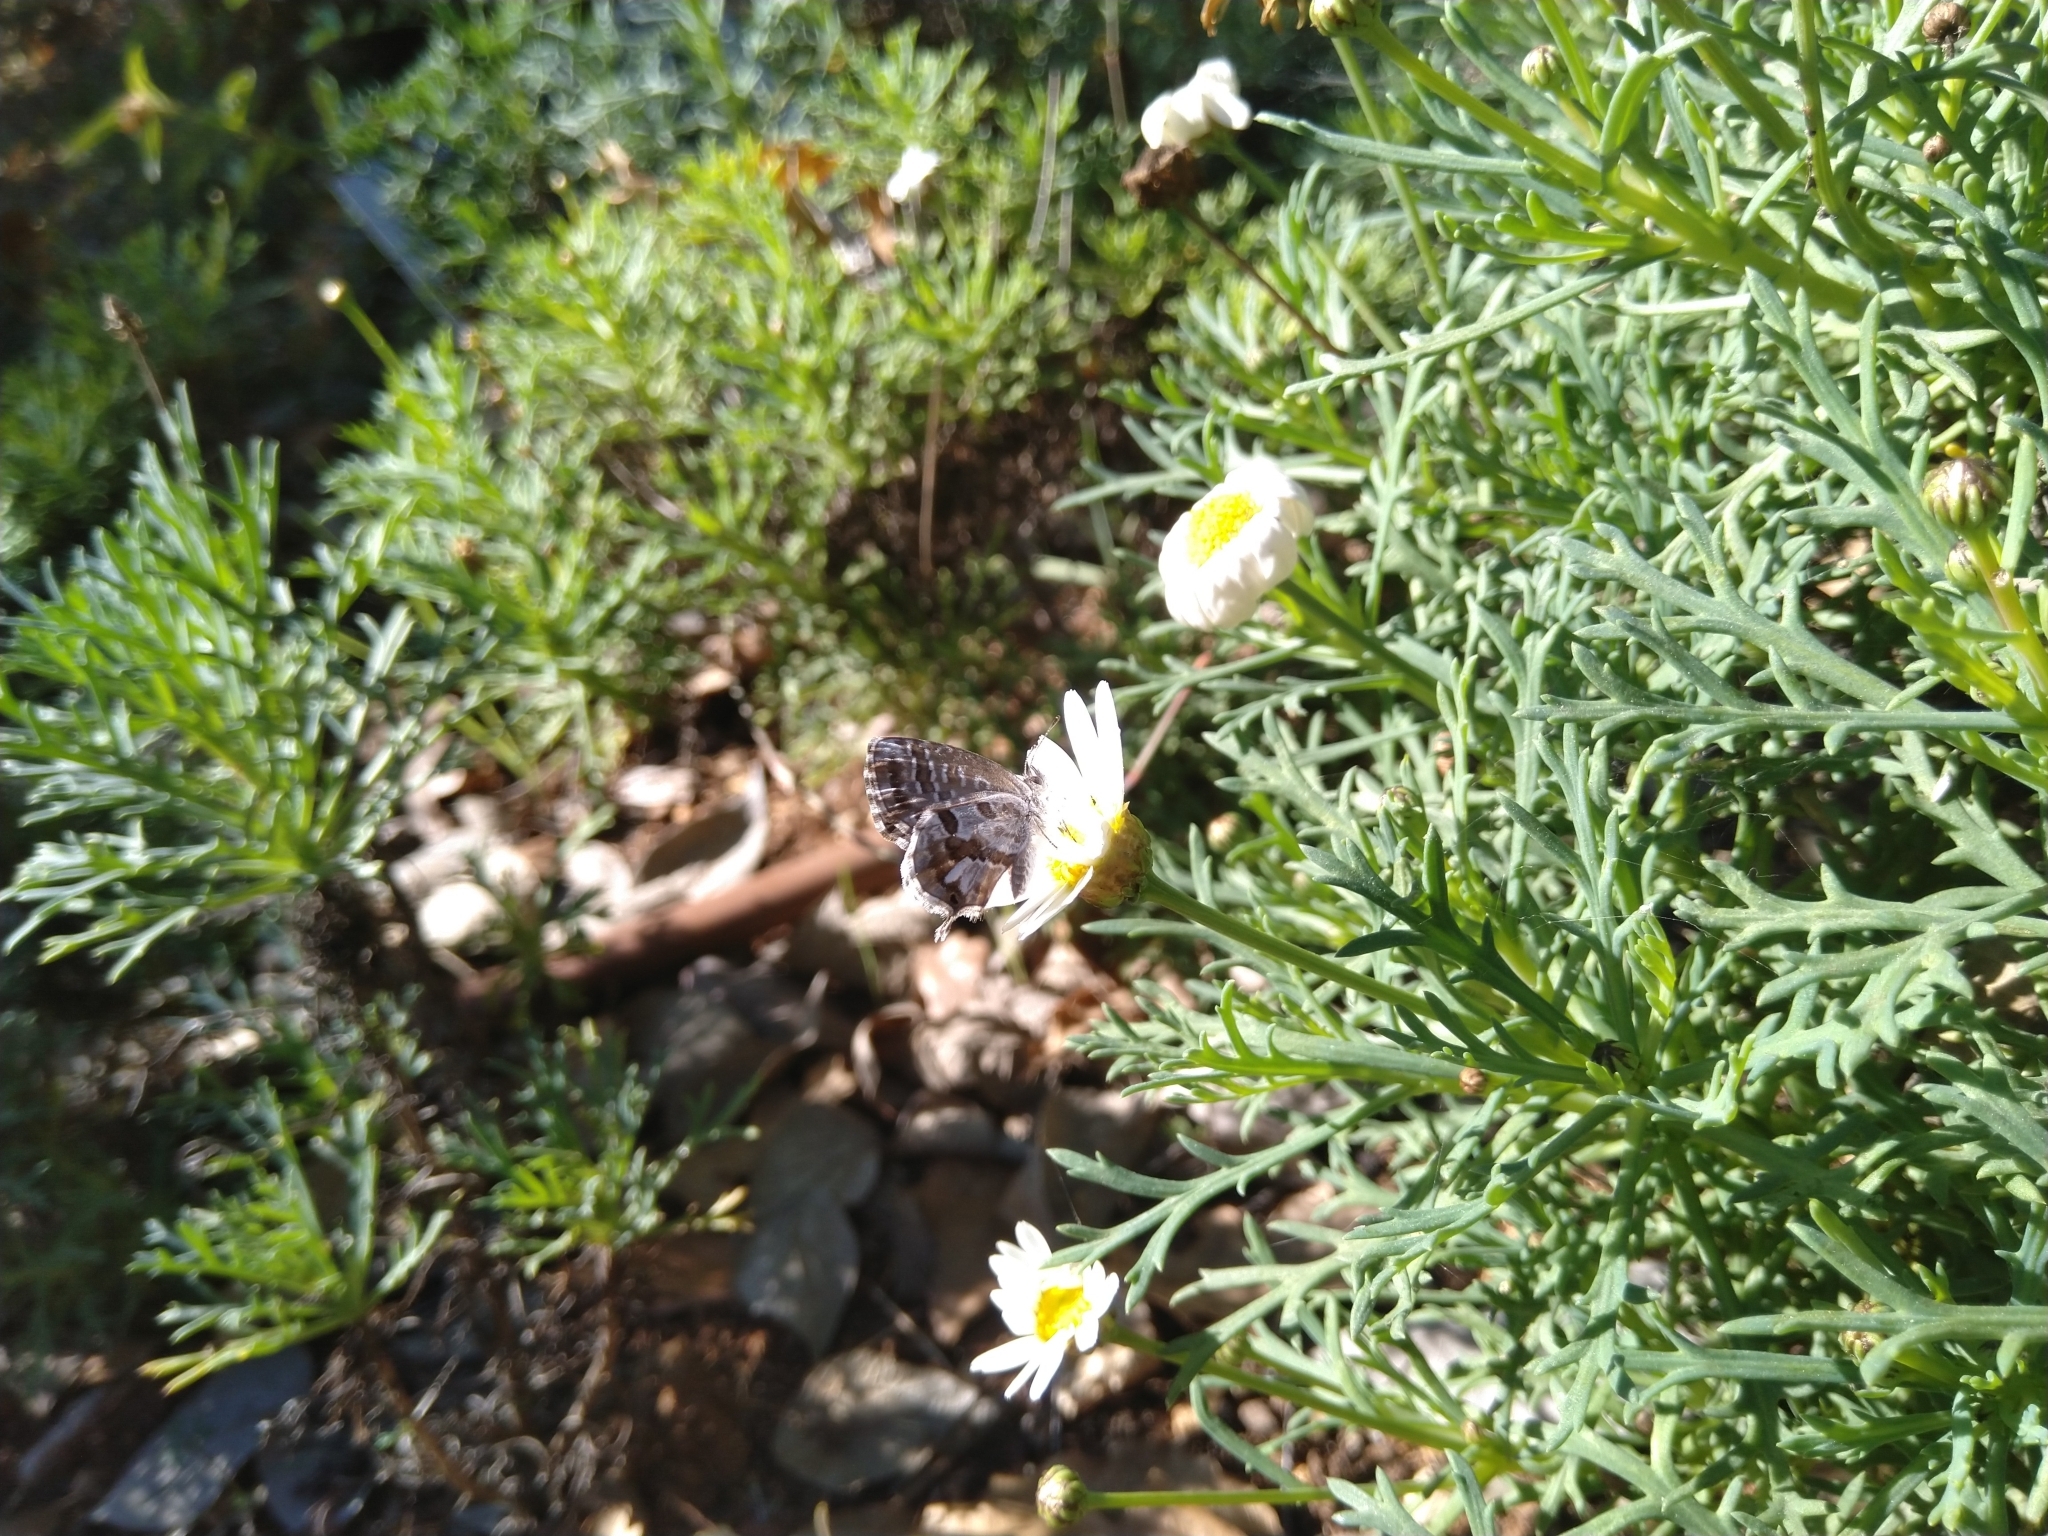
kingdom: Animalia
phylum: Arthropoda
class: Insecta
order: Lepidoptera
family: Lycaenidae
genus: Cacyreus
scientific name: Cacyreus marshalli
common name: Geranium bronze
